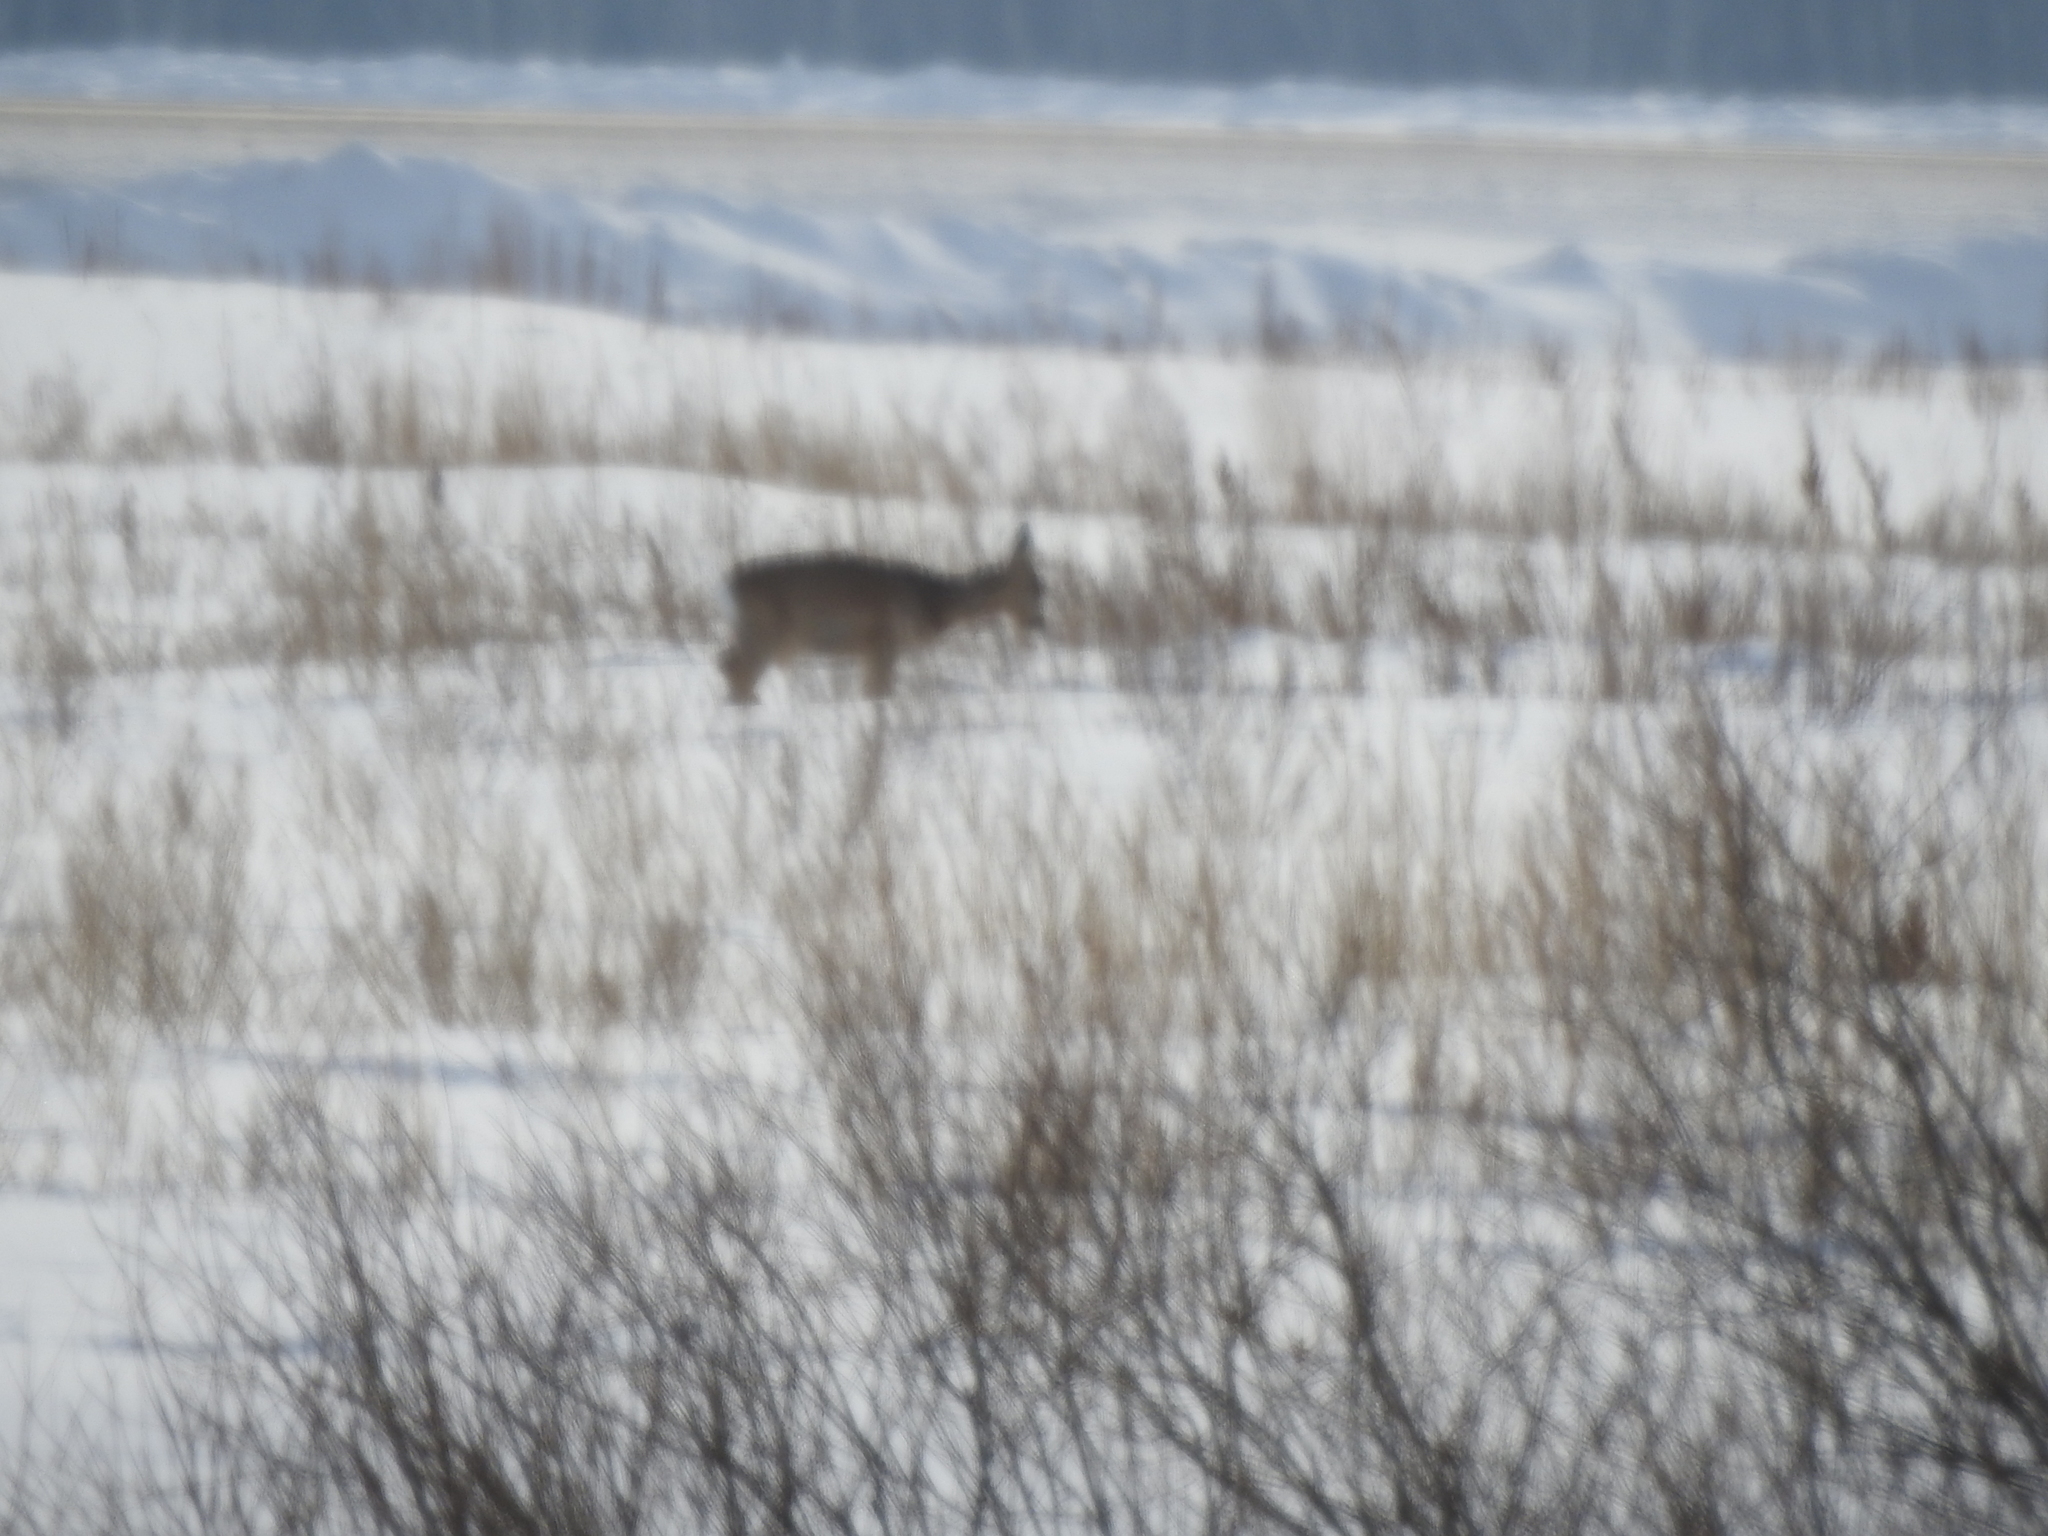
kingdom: Animalia
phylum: Chordata
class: Mammalia
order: Artiodactyla
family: Cervidae
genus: Capreolus
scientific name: Capreolus pygargus
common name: Siberian roe
